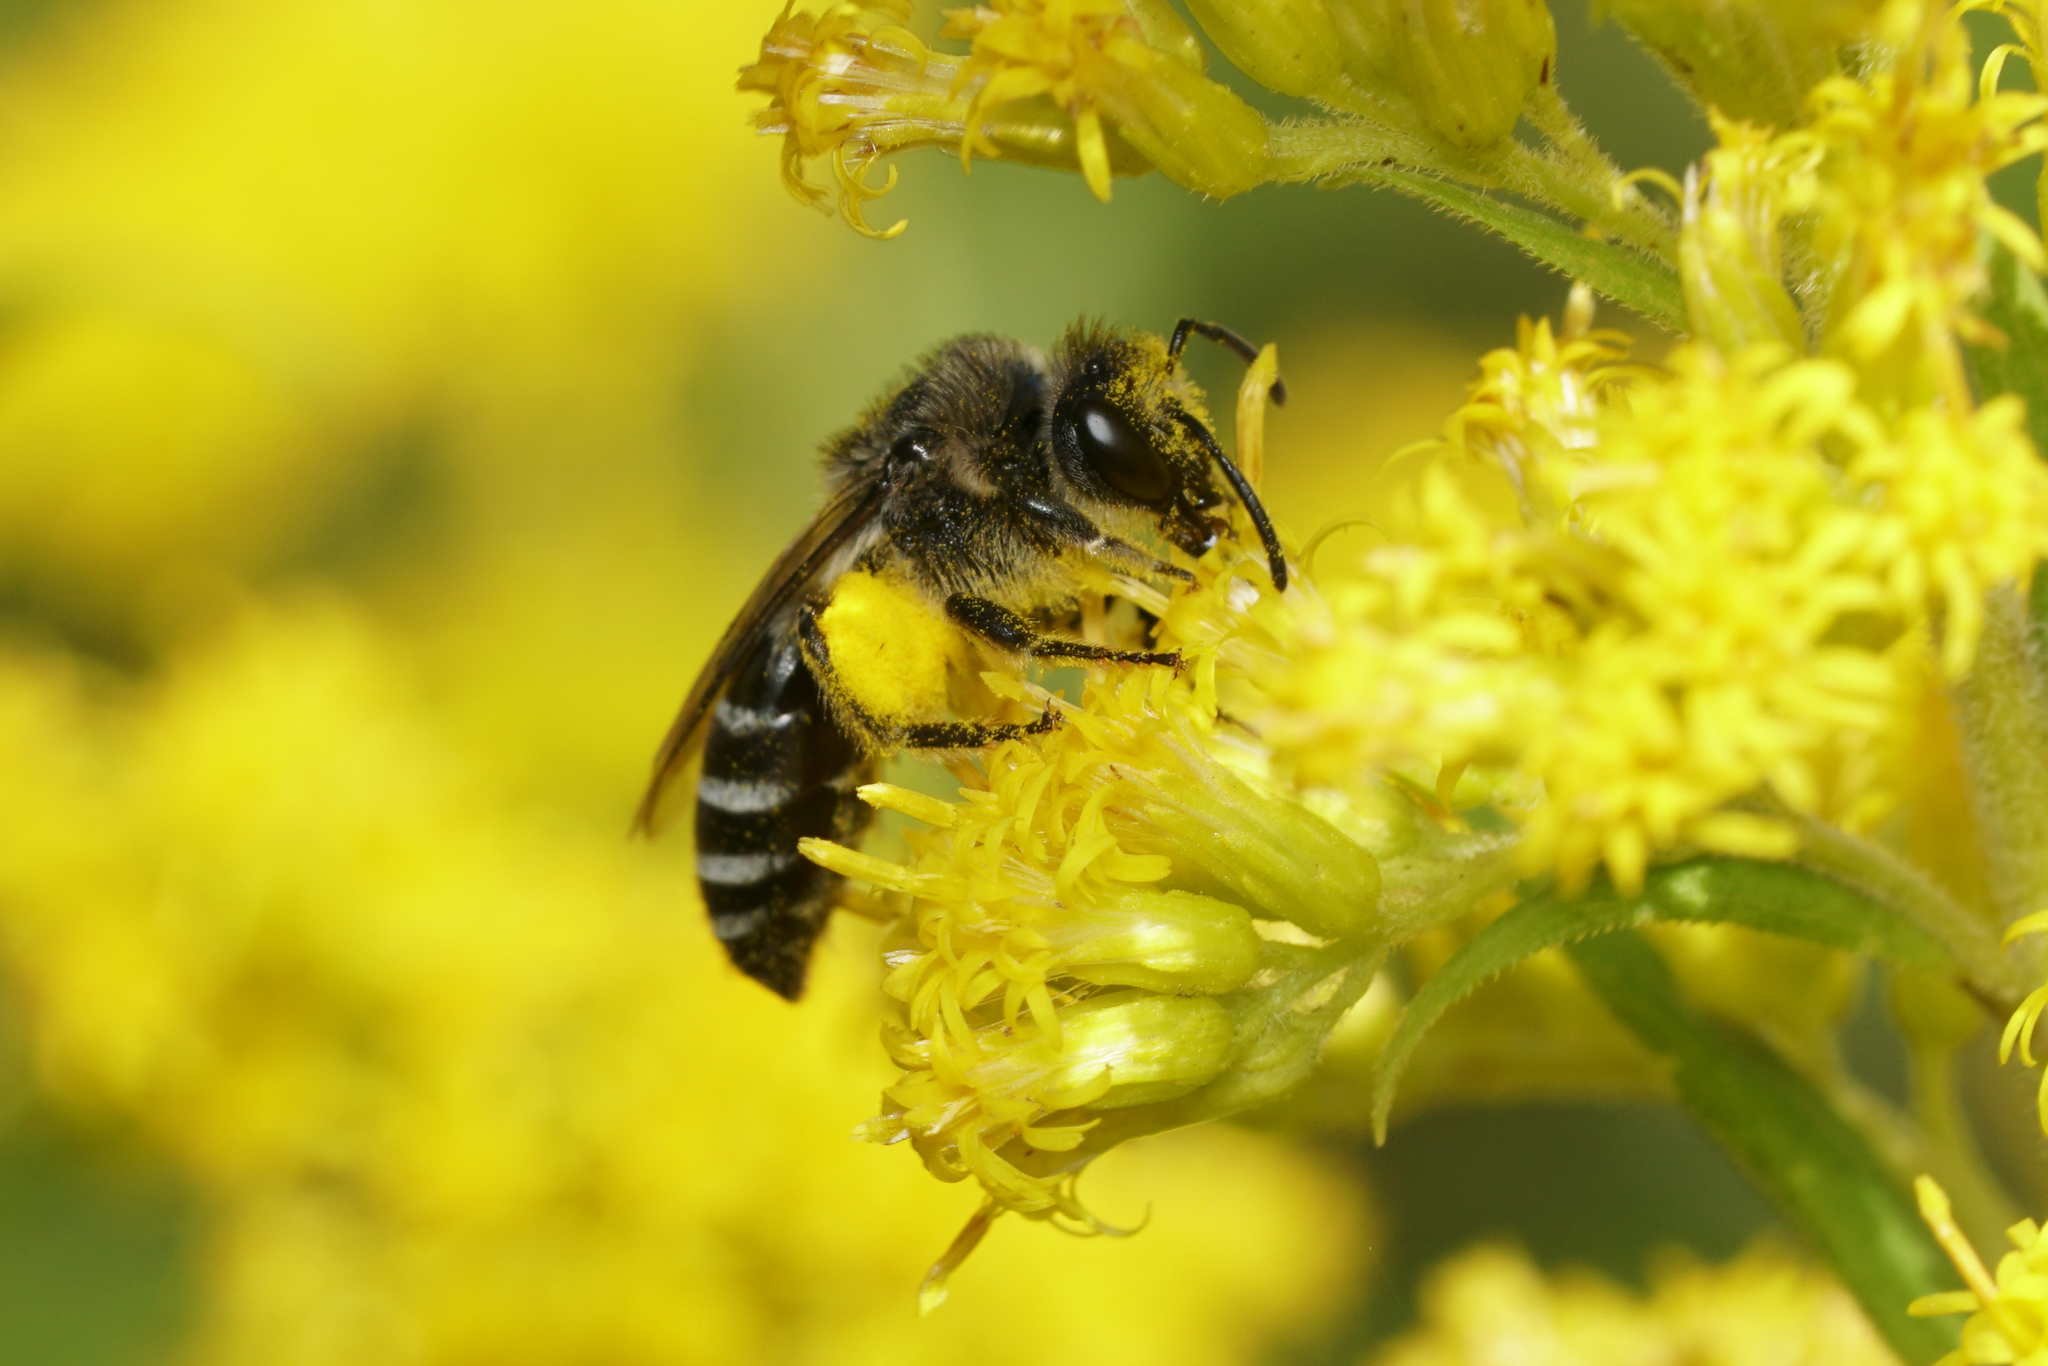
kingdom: Animalia
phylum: Arthropoda
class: Insecta
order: Hymenoptera
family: Colletidae
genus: Colletes
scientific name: Colletes simulans
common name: Spine-shouldered cellophane bee
